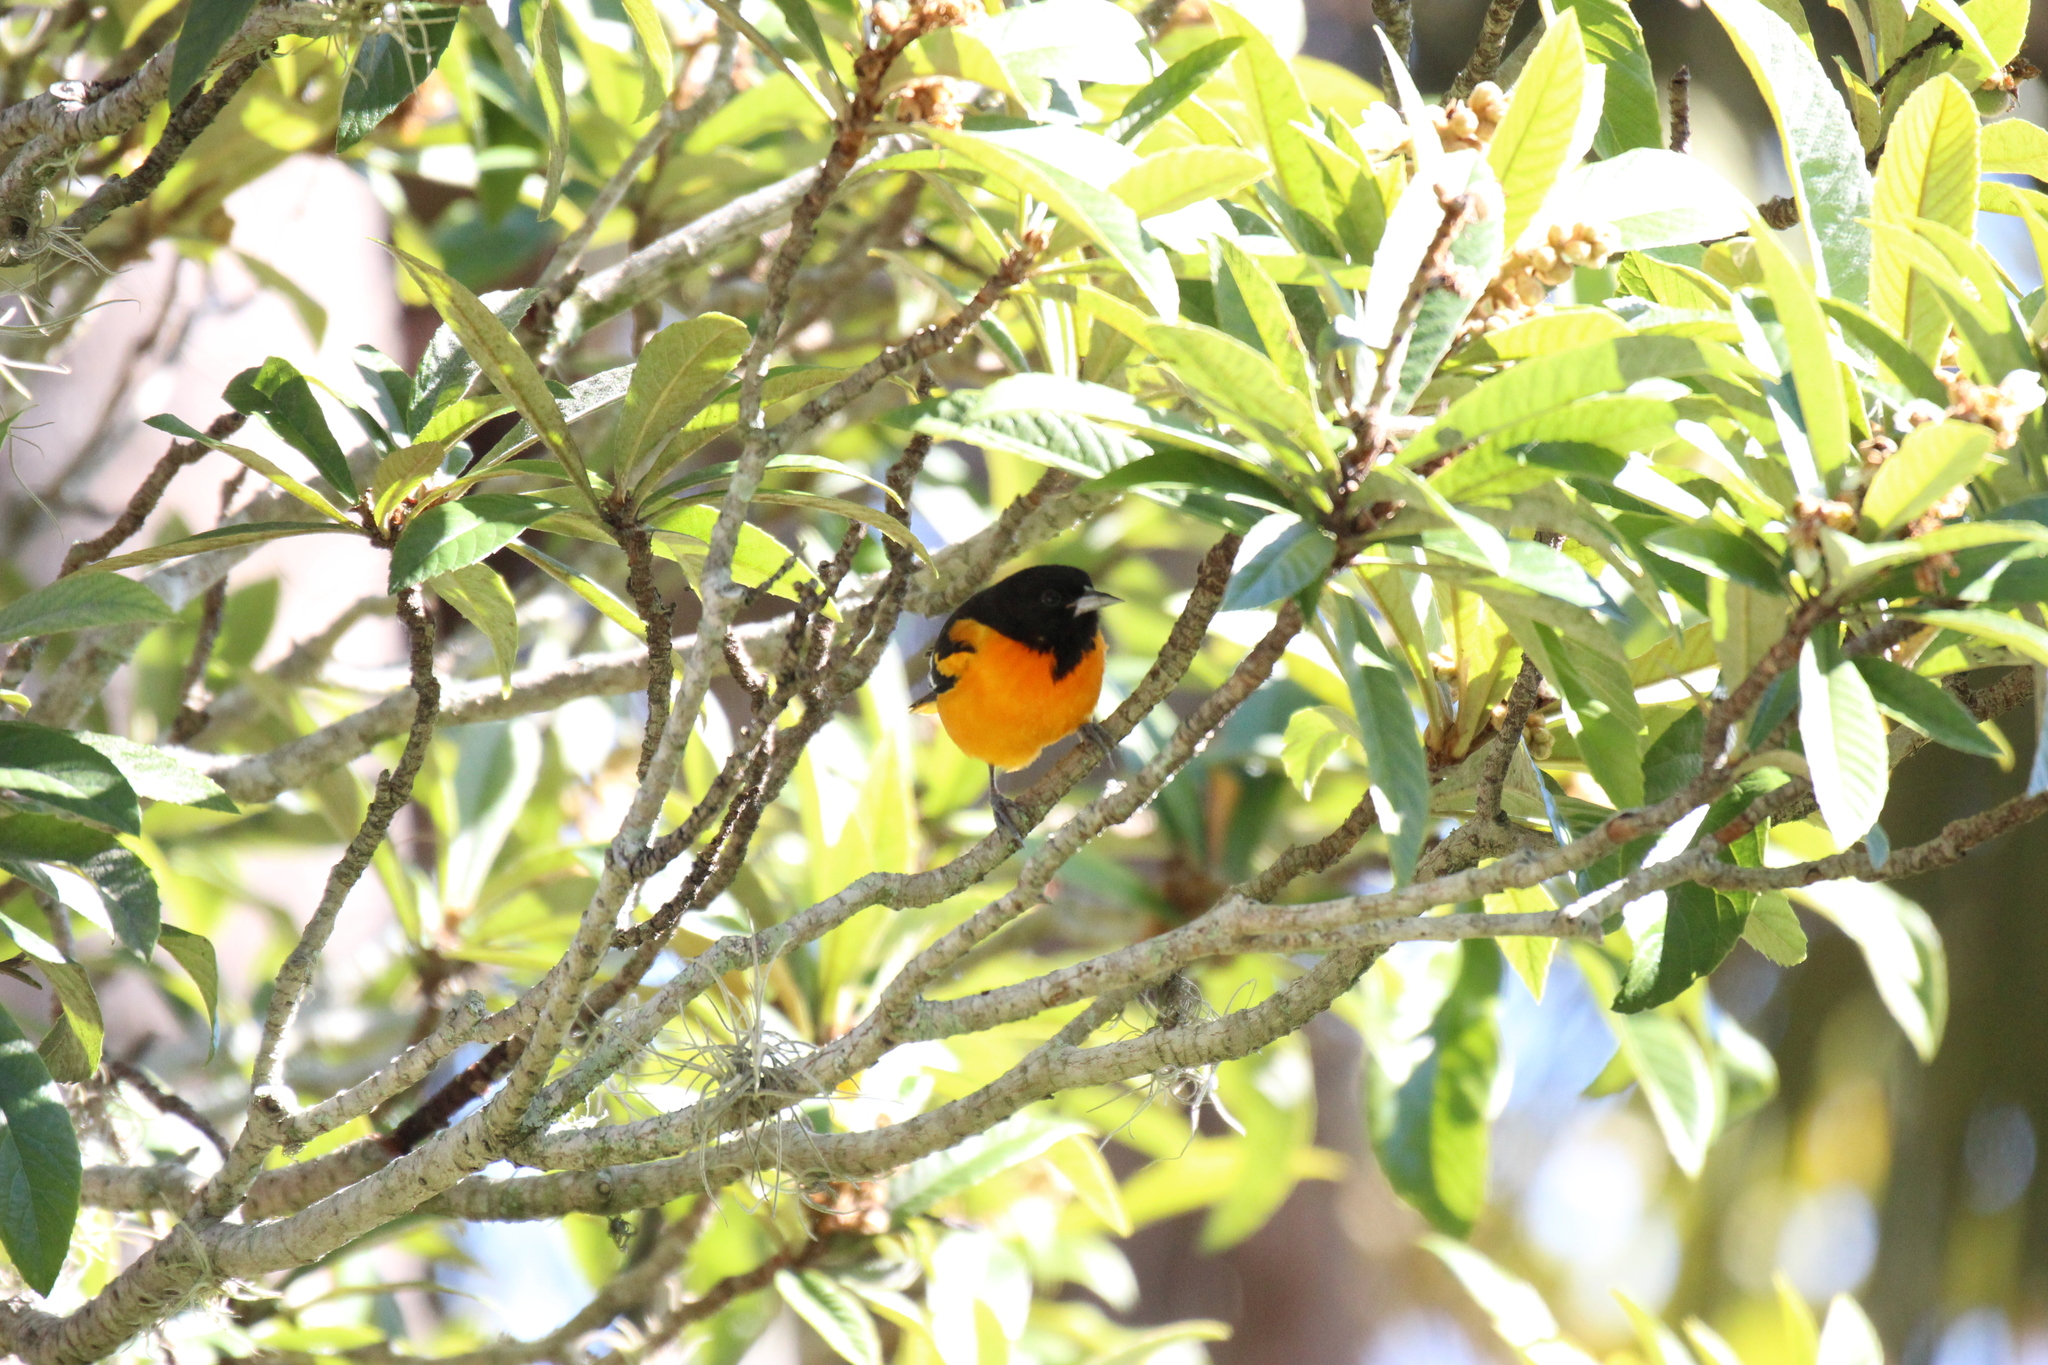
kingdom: Animalia
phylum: Chordata
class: Aves
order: Passeriformes
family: Icteridae
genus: Icterus
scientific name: Icterus galbula
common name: Baltimore oriole
